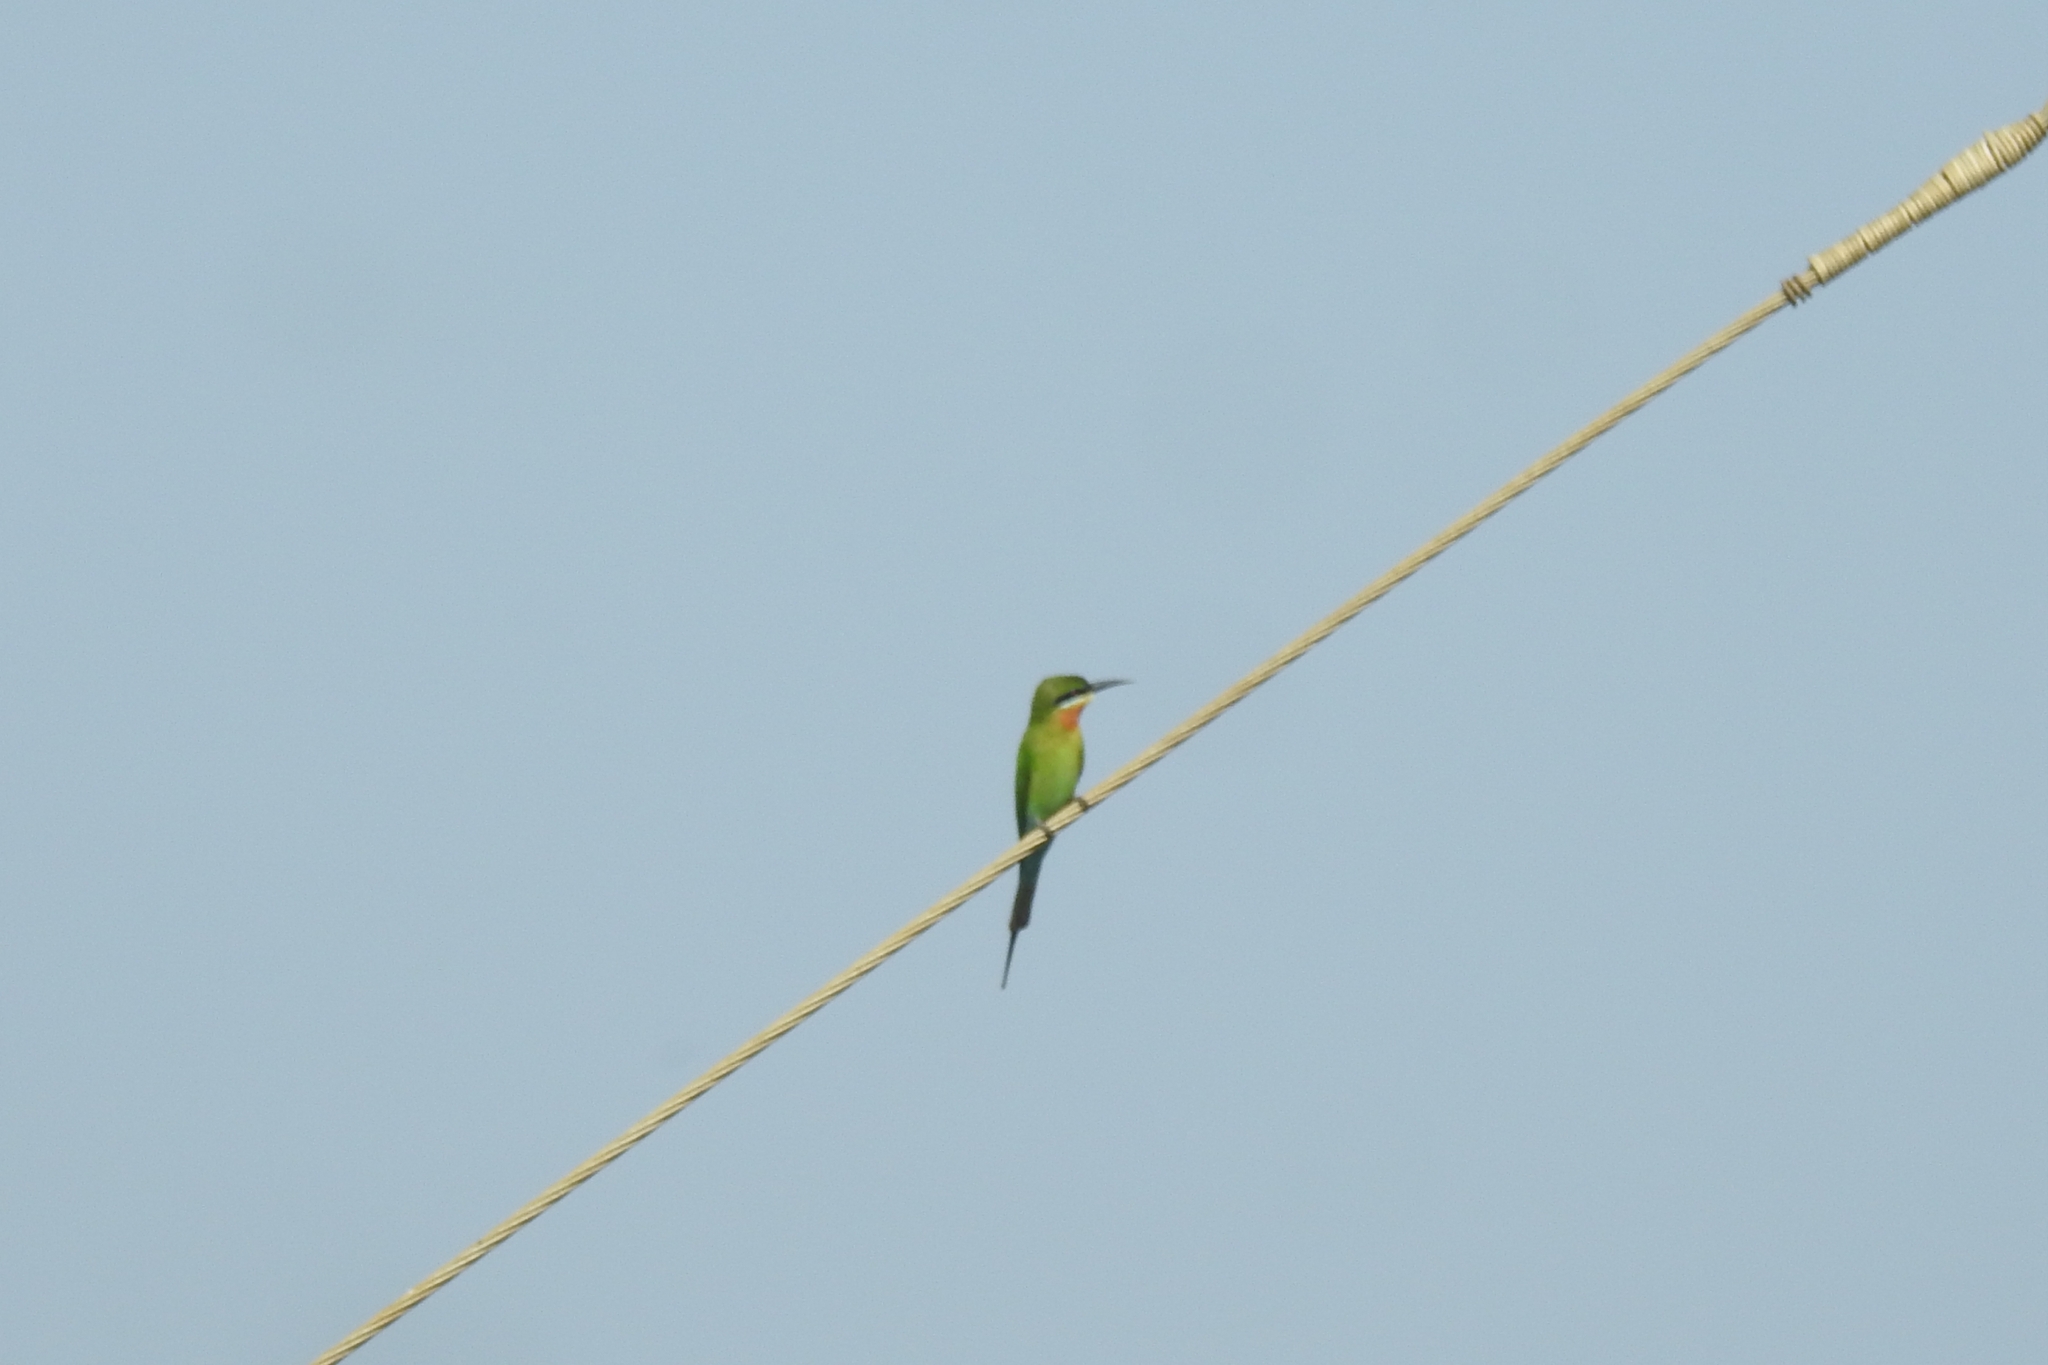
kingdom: Animalia
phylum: Chordata
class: Aves
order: Coraciiformes
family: Meropidae
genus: Merops
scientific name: Merops philippinus
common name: Blue-tailed bee-eater
